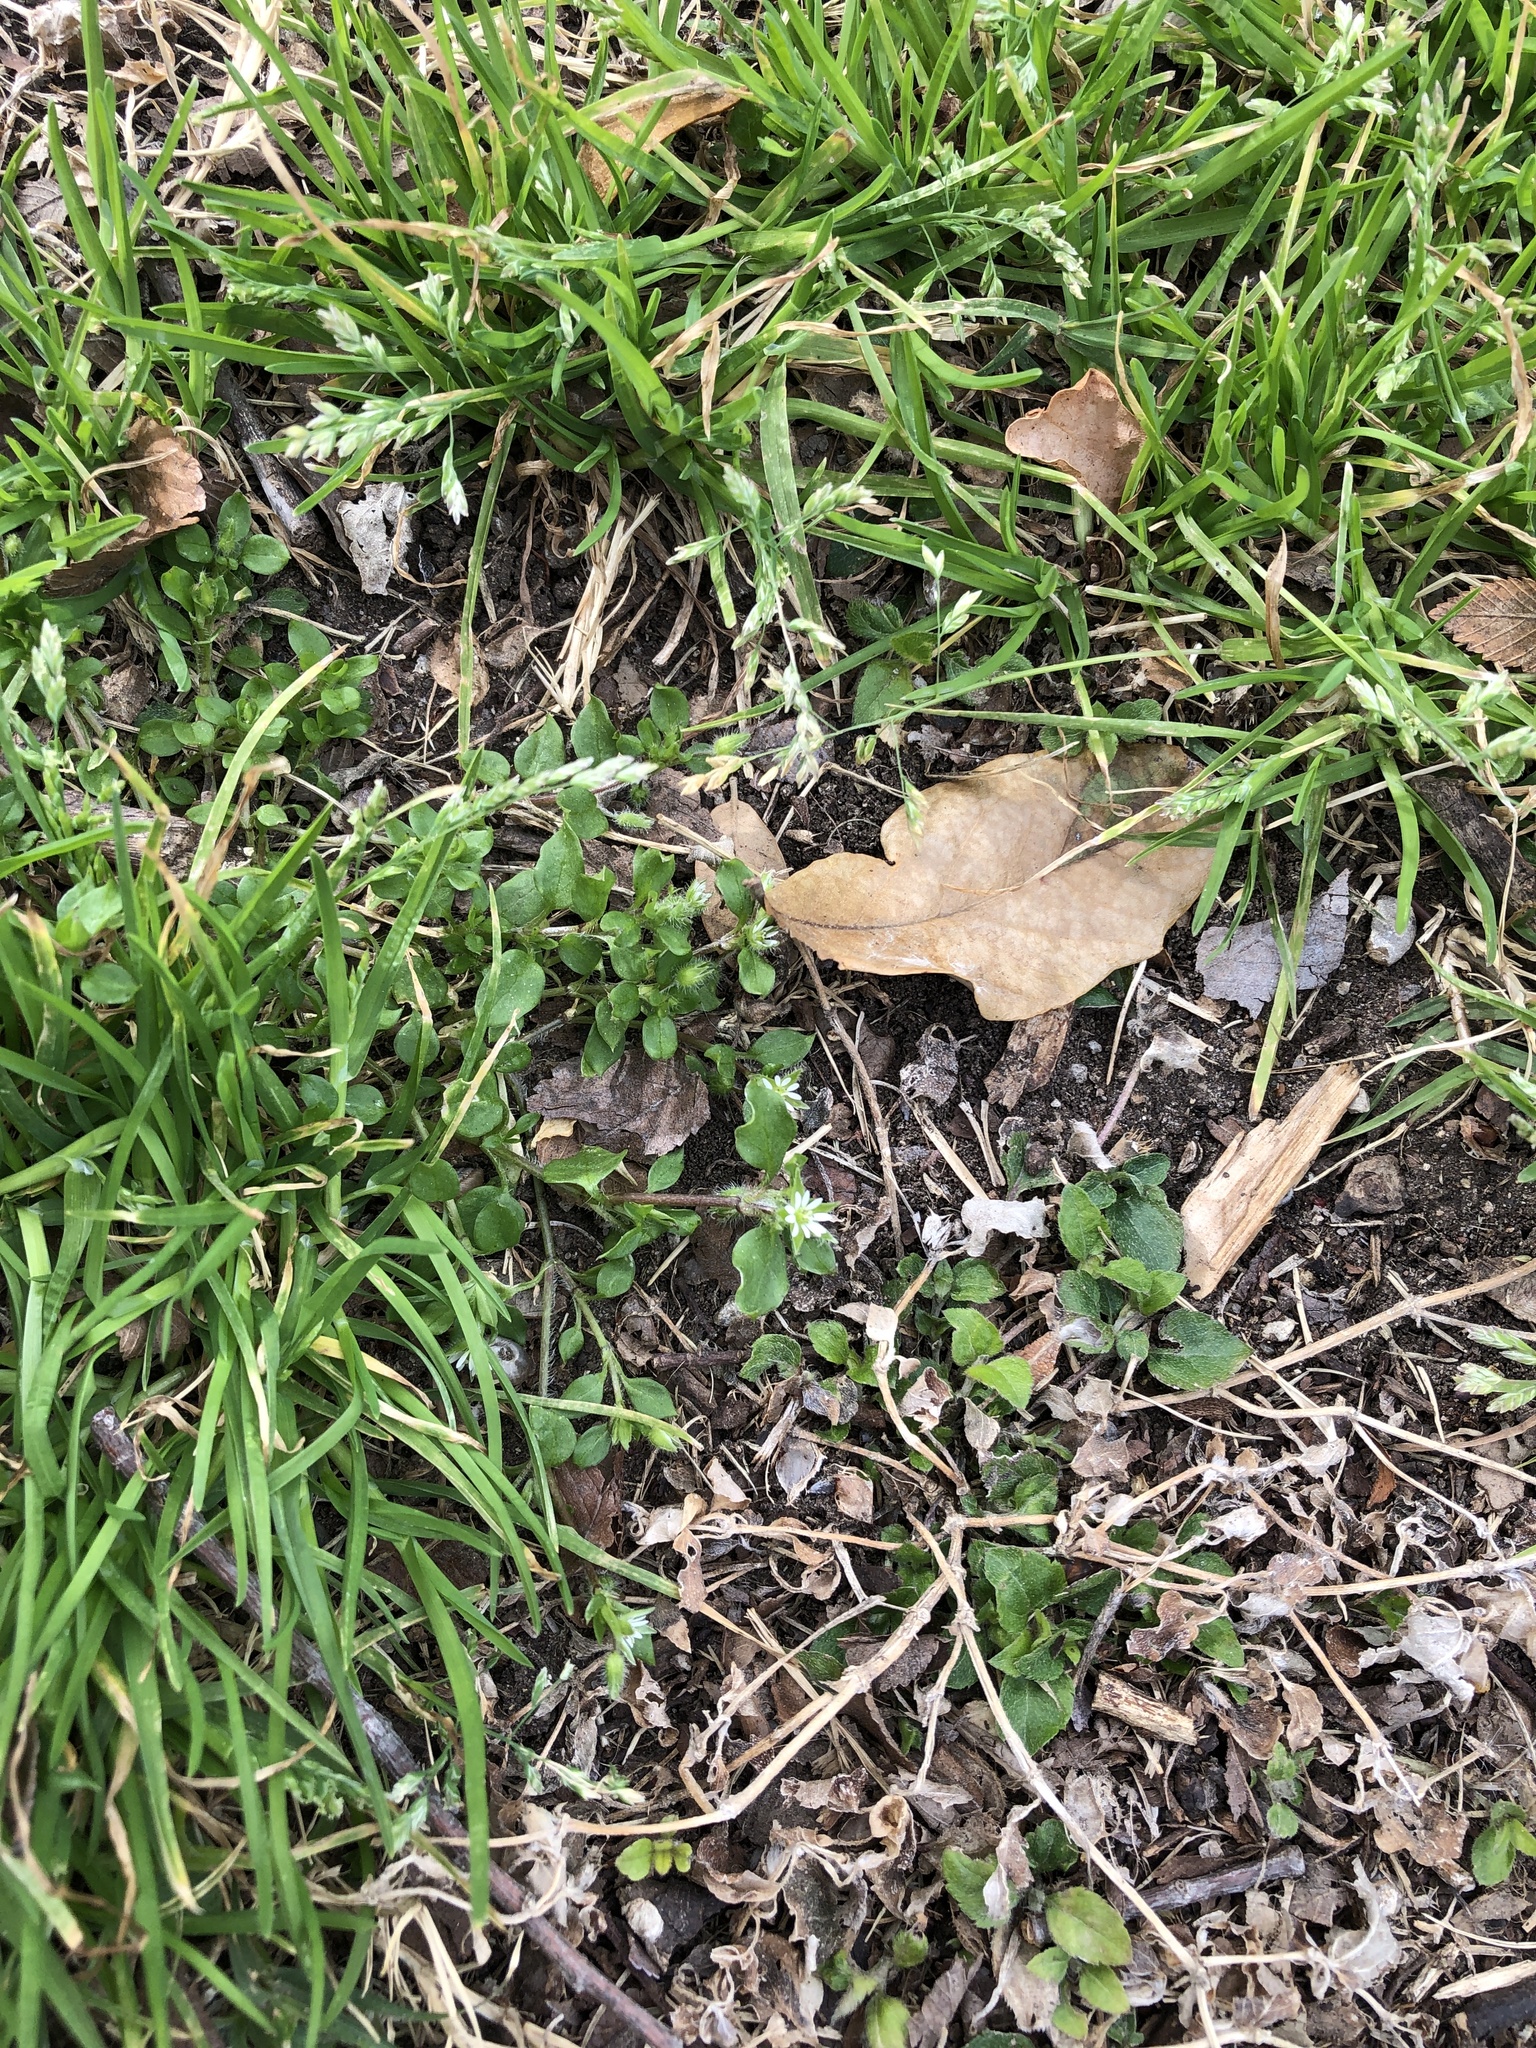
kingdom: Plantae
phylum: Tracheophyta
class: Magnoliopsida
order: Caryophyllales
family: Caryophyllaceae
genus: Stellaria
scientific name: Stellaria media
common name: Common chickweed
